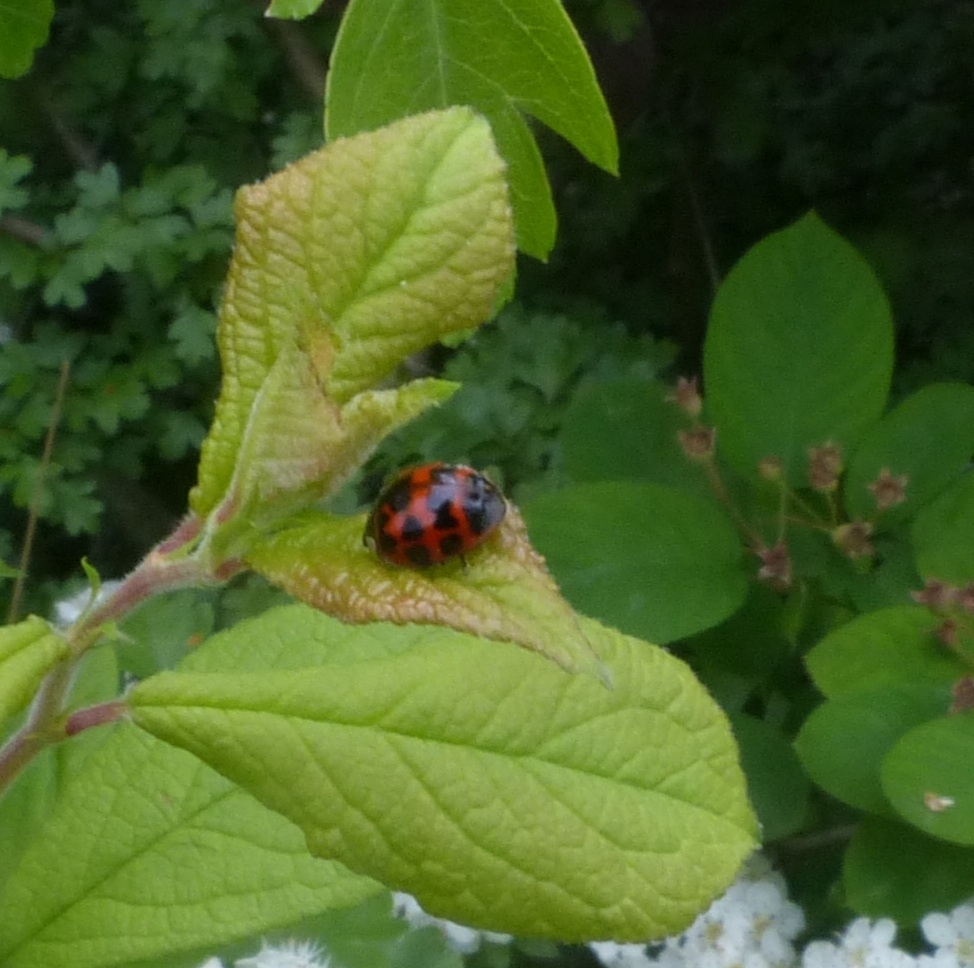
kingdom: Animalia
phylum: Arthropoda
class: Insecta
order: Coleoptera
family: Coccinellidae
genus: Harmonia
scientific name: Harmonia axyridis
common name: Harlequin ladybird
